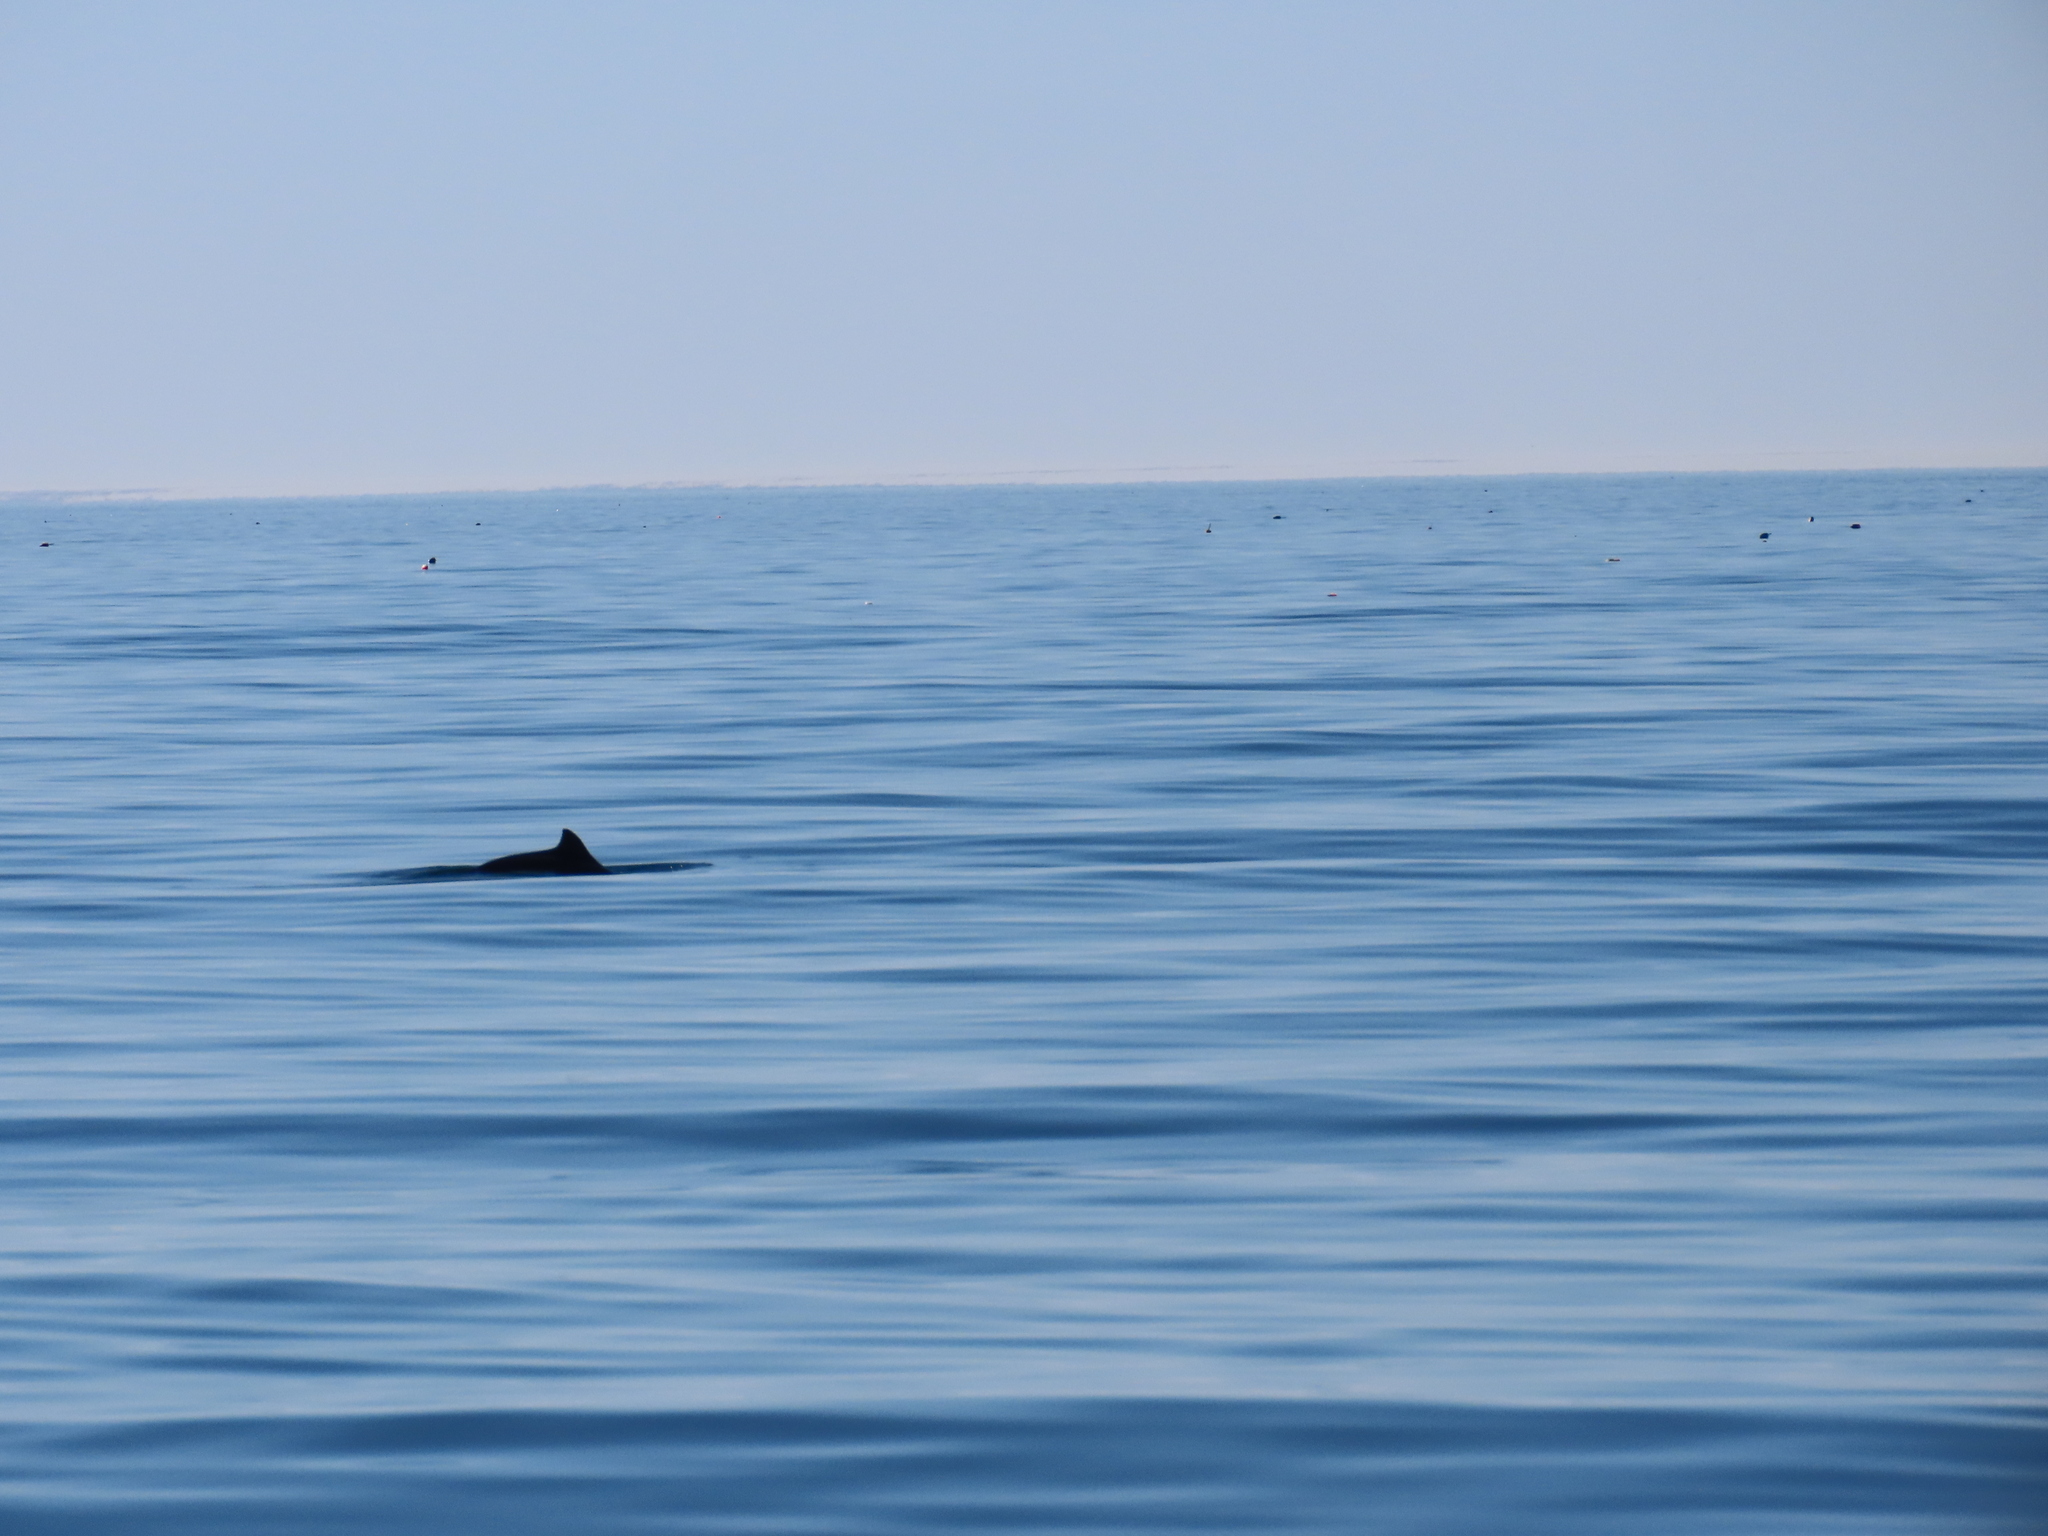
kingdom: Animalia
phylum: Chordata
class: Mammalia
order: Cetacea
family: Phocoenidae
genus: Phocoena
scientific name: Phocoena phocoena
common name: Harbor porpoise
